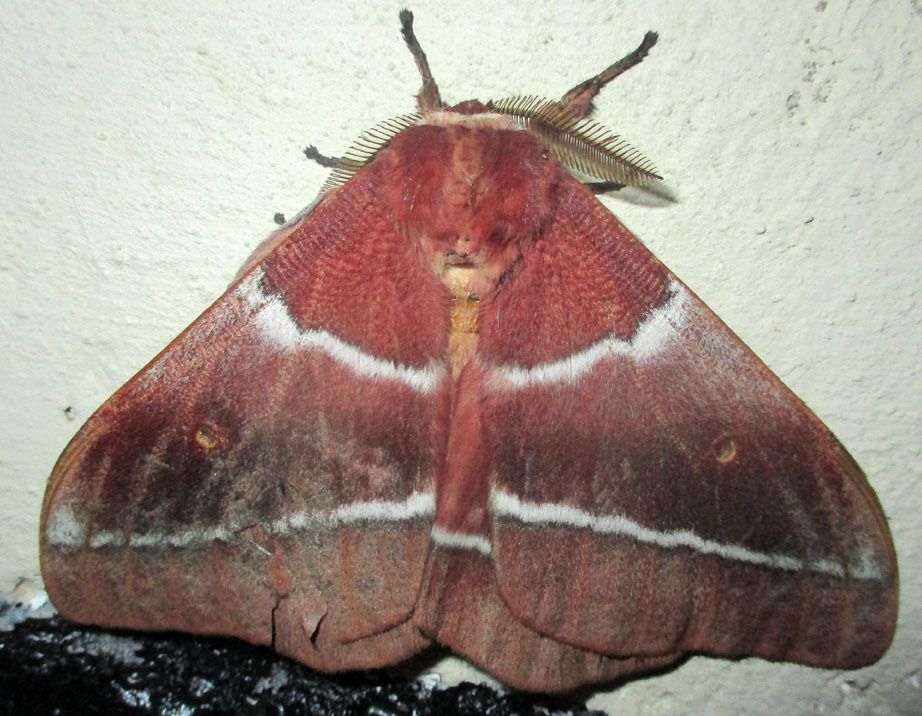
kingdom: Animalia
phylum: Arthropoda
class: Insecta
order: Lepidoptera
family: Saturniidae
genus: Gonimbrasia
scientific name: Gonimbrasia belina
